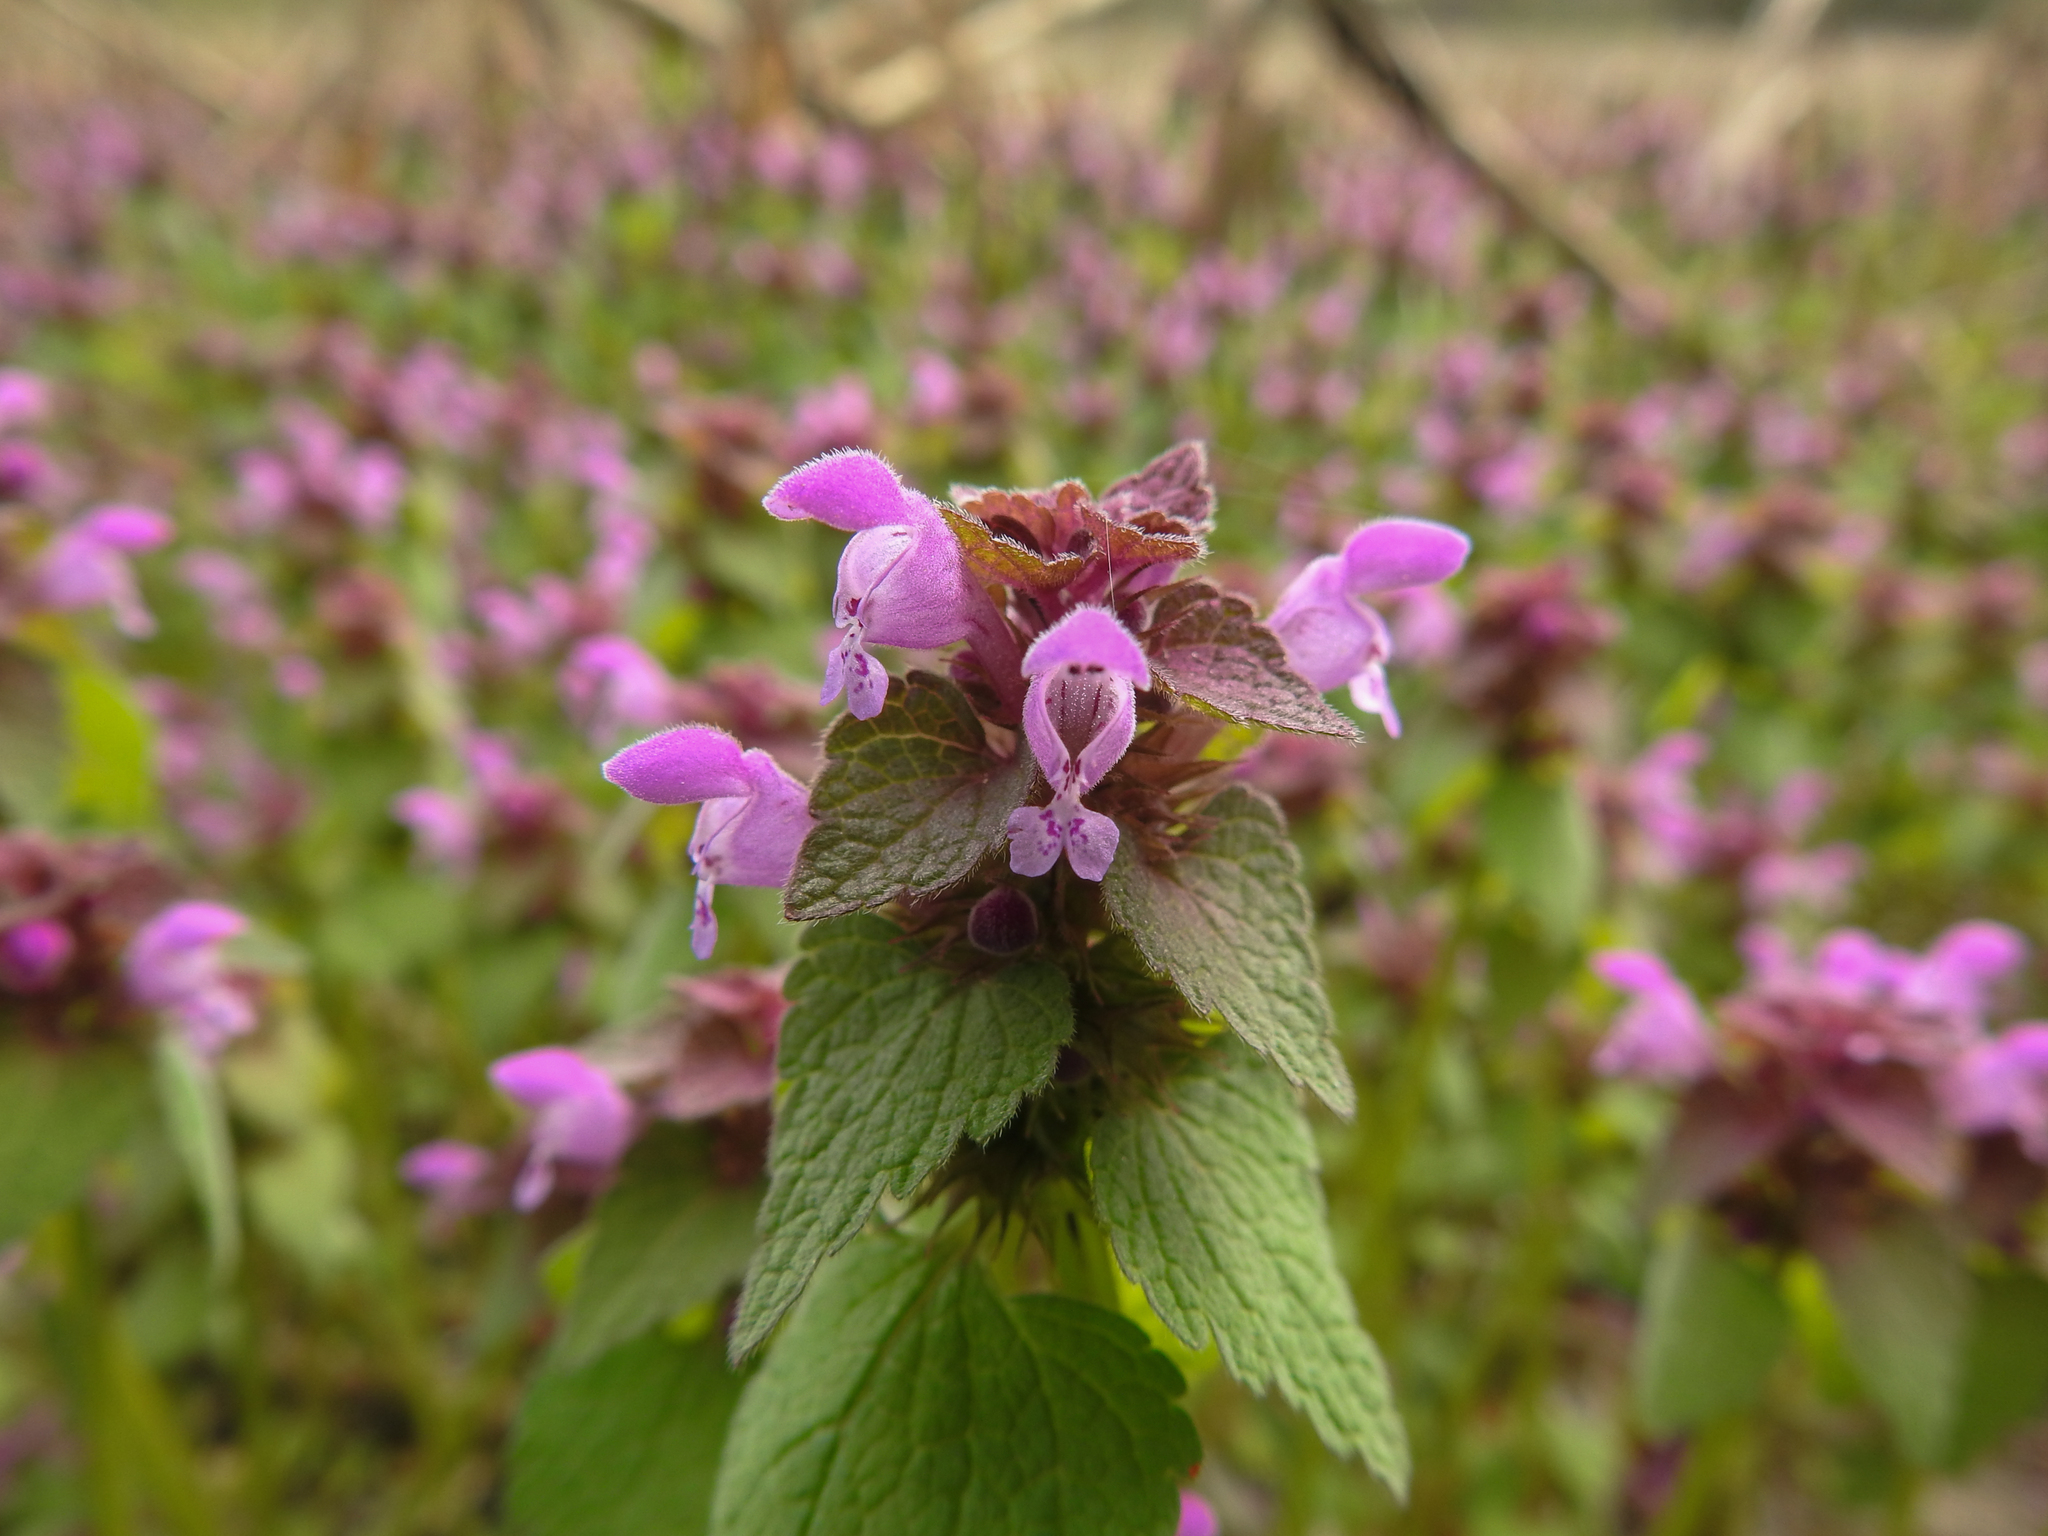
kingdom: Plantae
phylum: Tracheophyta
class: Magnoliopsida
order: Lamiales
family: Lamiaceae
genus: Lamium
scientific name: Lamium purpureum
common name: Red dead-nettle
